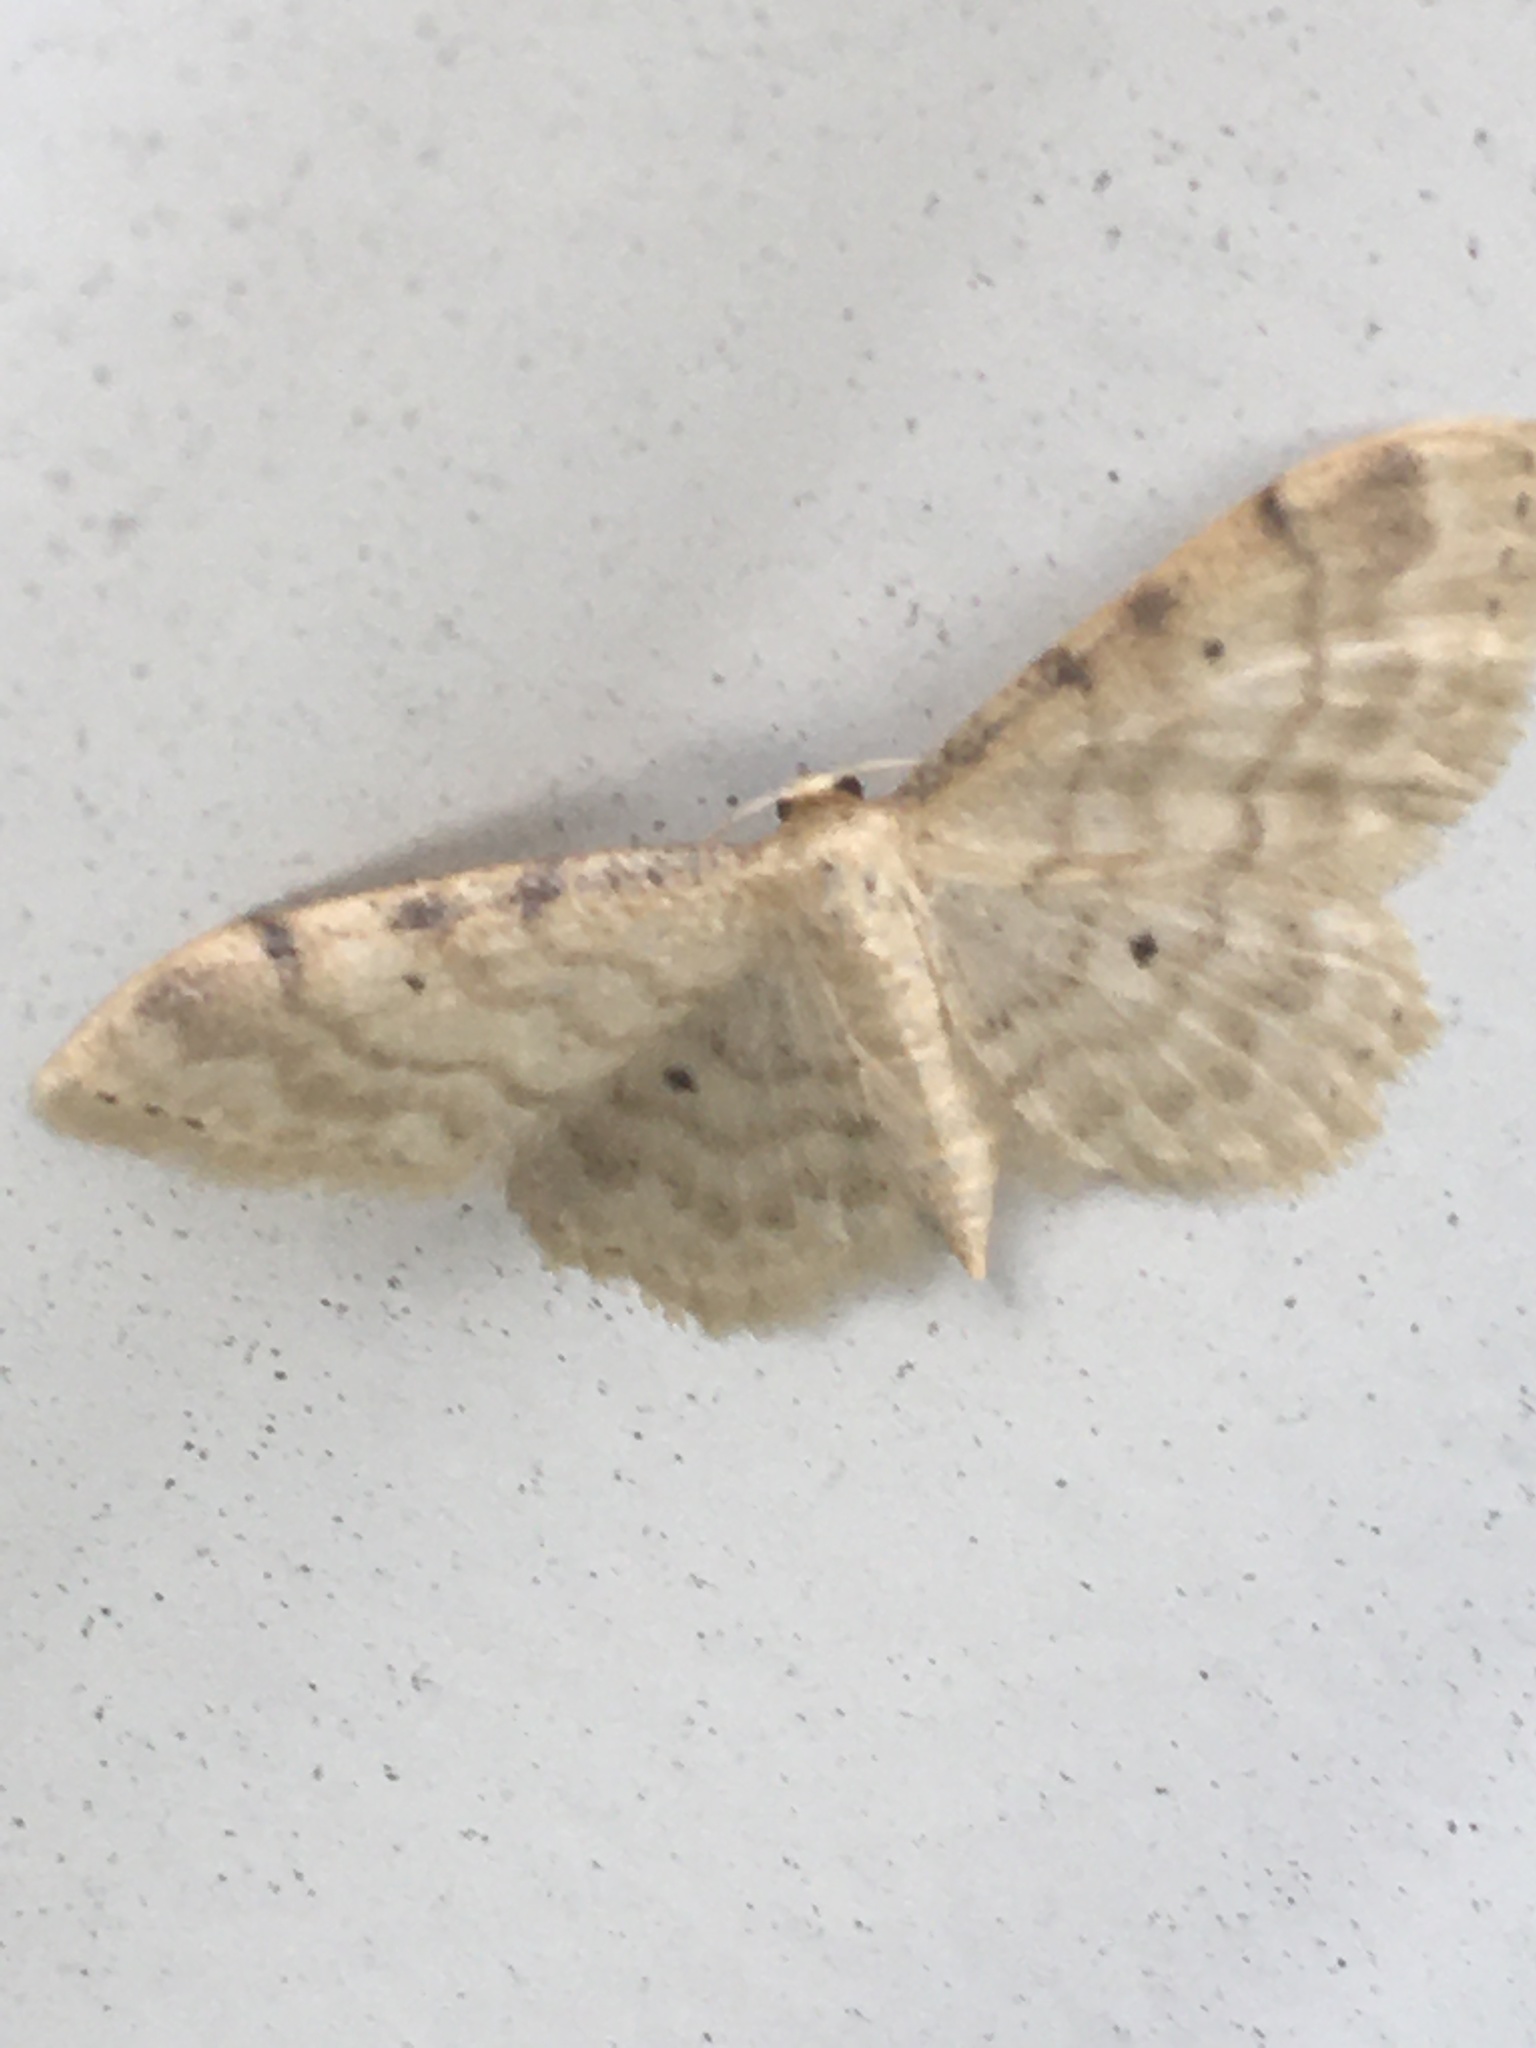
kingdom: Animalia
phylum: Arthropoda
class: Insecta
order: Lepidoptera
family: Geometridae
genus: Idaea
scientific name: Idaea fuscovenosa
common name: Dwarf cream wave
